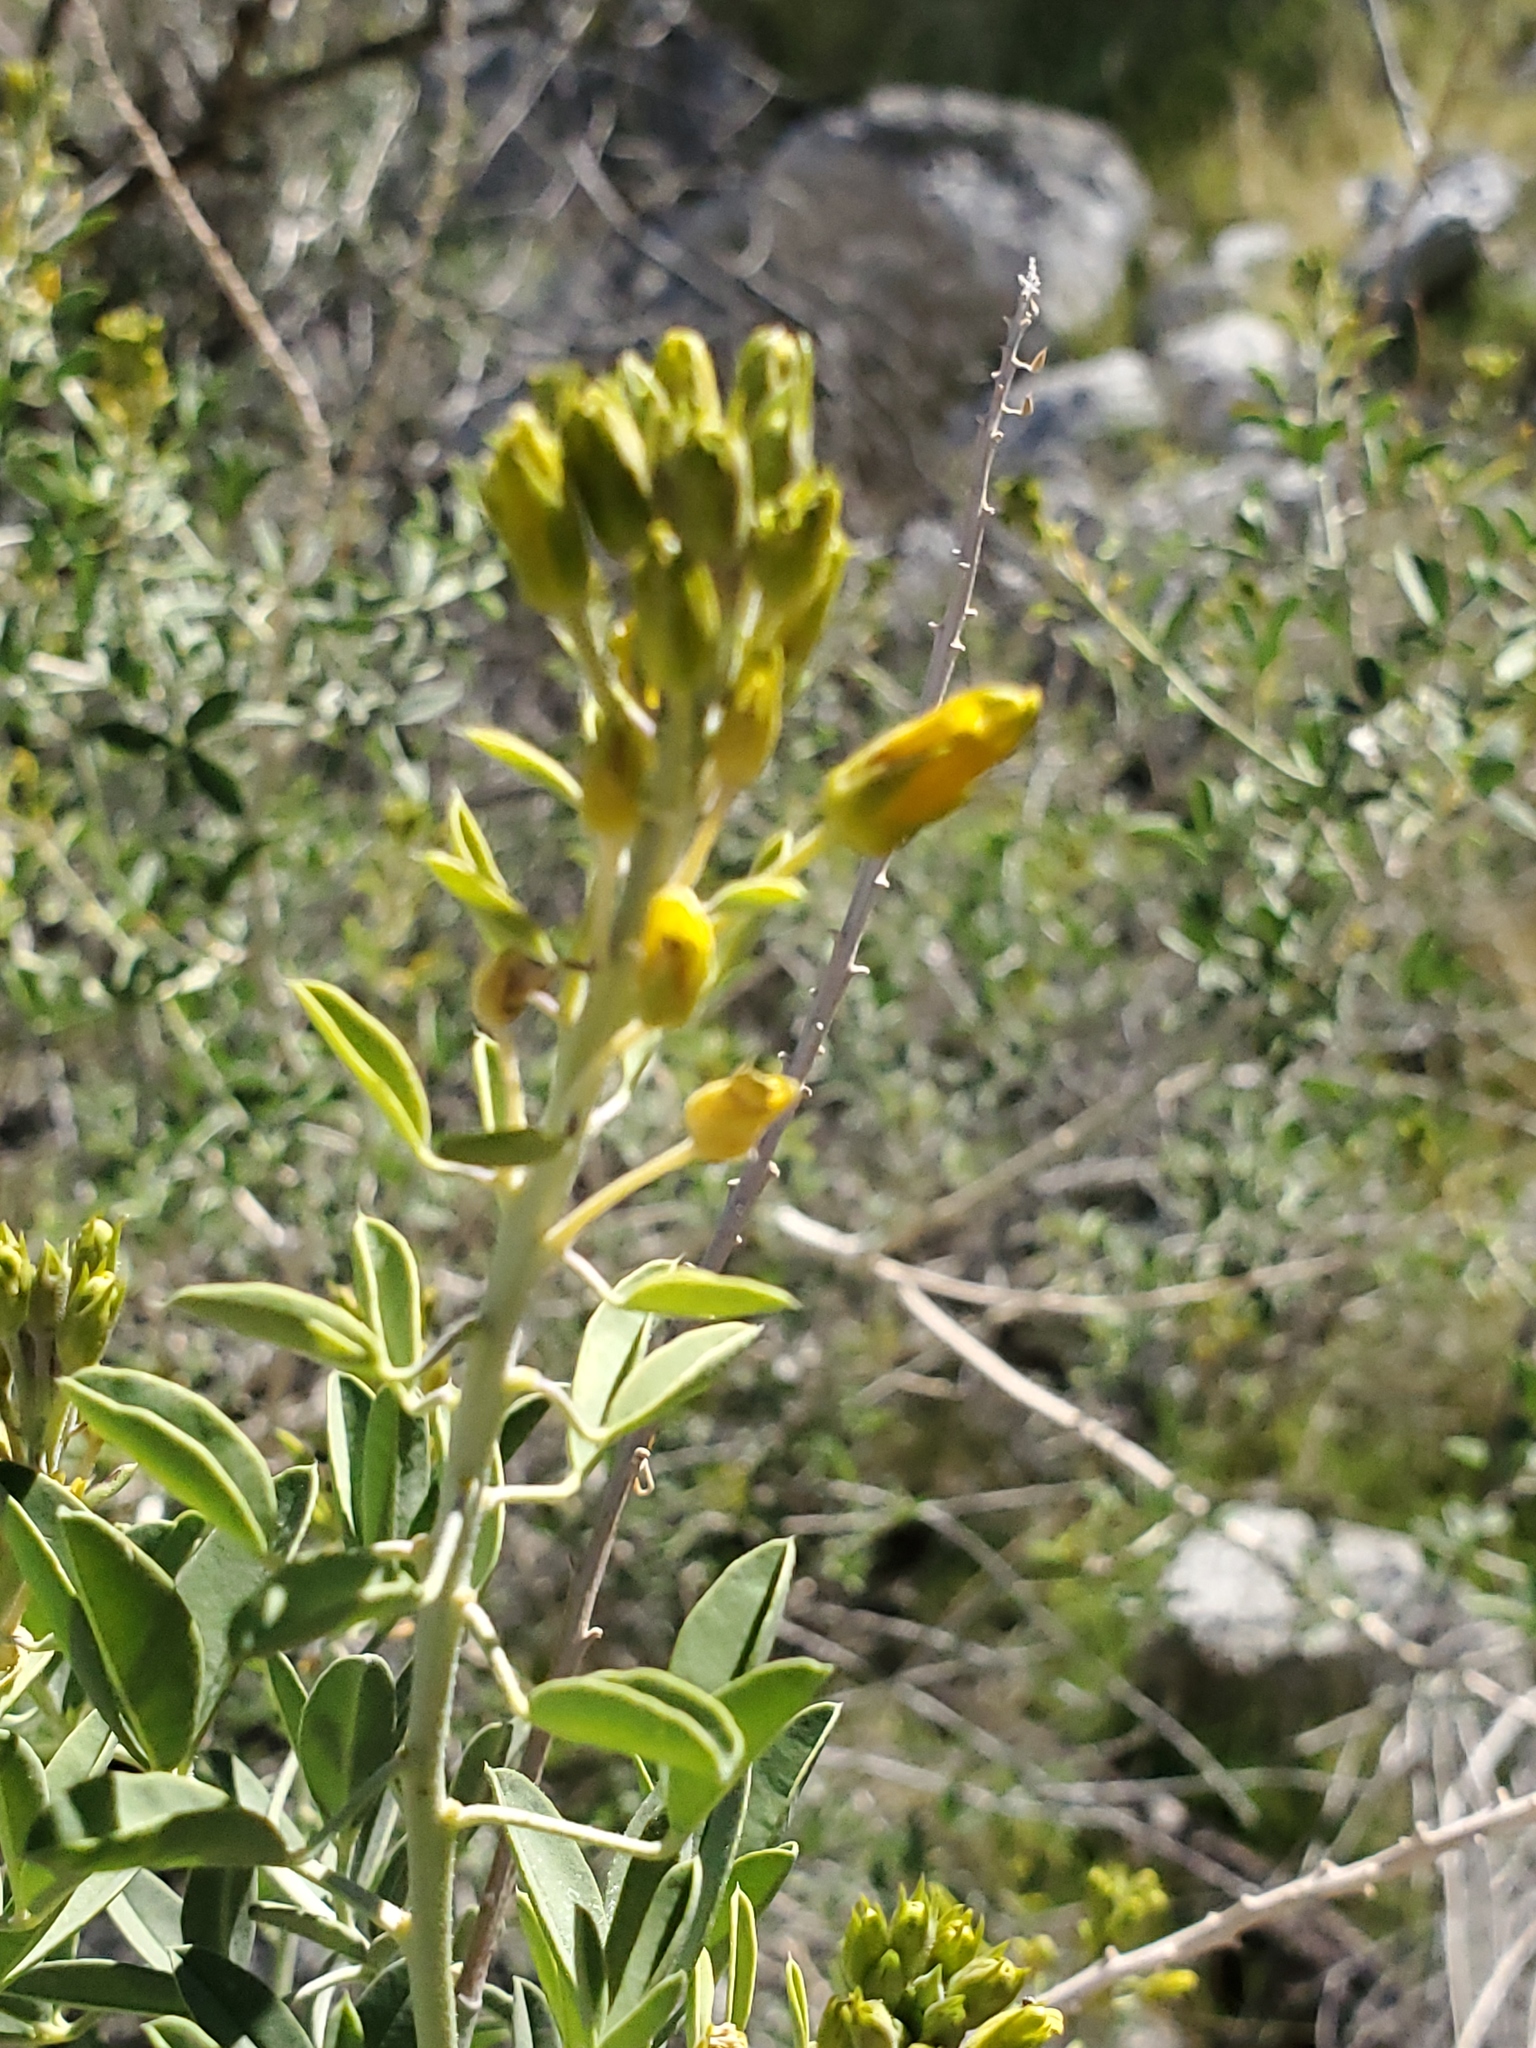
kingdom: Plantae
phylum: Tracheophyta
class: Magnoliopsida
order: Brassicales
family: Cleomaceae
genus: Cleomella
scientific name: Cleomella arborea
